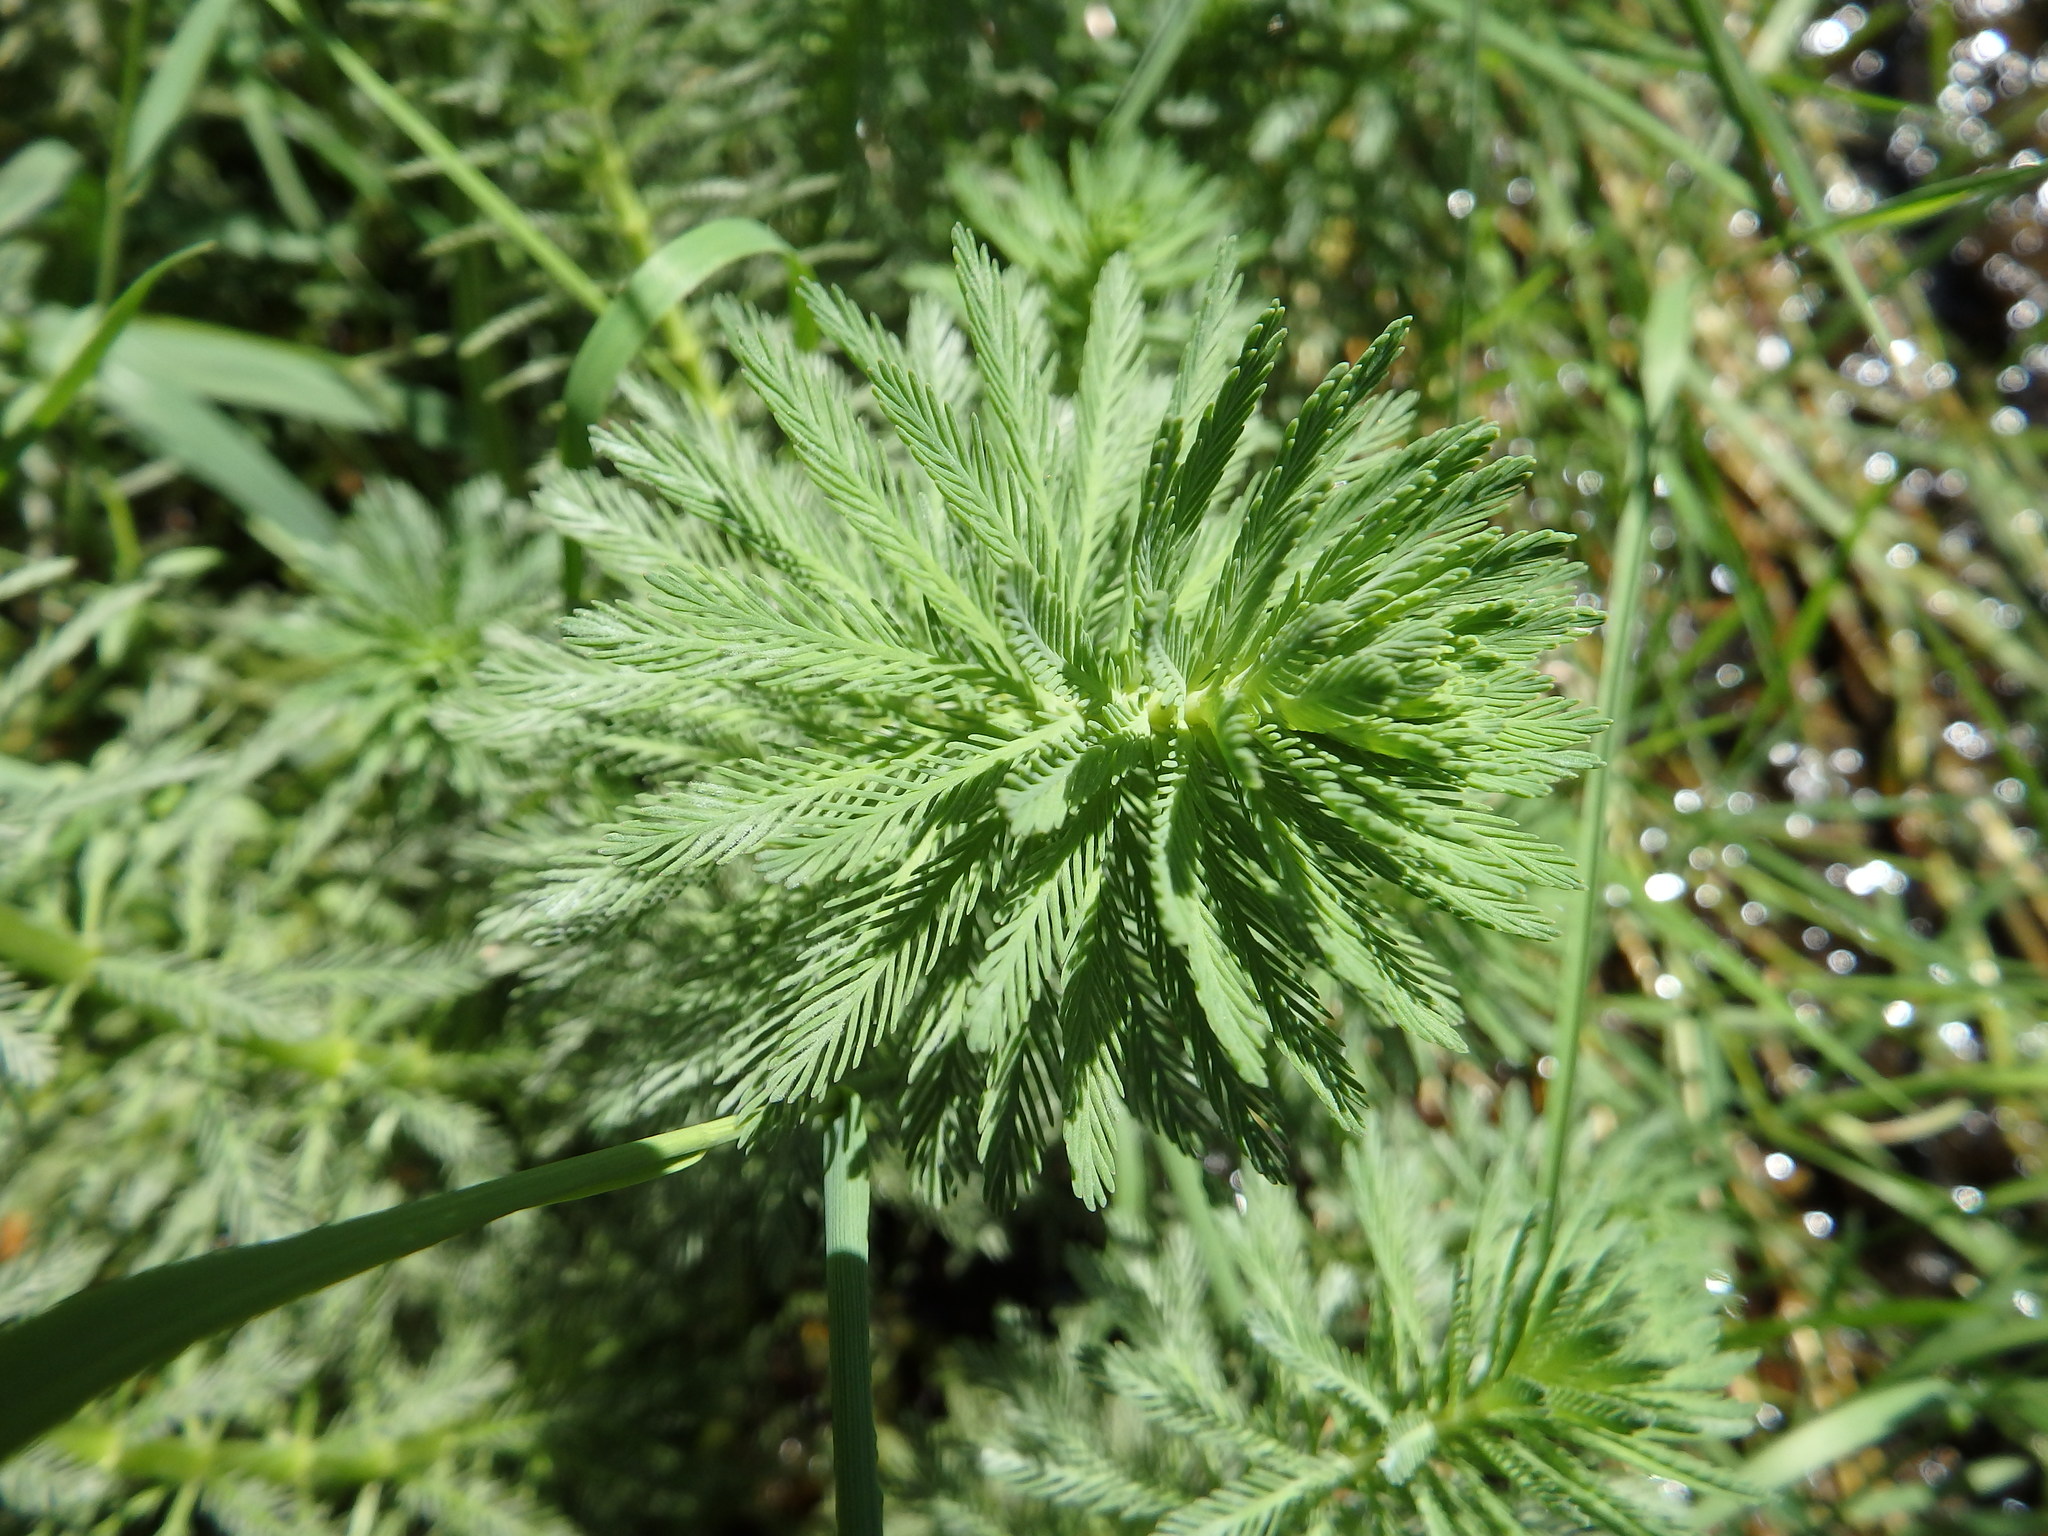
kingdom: Plantae
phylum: Tracheophyta
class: Magnoliopsida
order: Saxifragales
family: Haloragaceae
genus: Myriophyllum
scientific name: Myriophyllum aquaticum
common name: Parrot's feather
